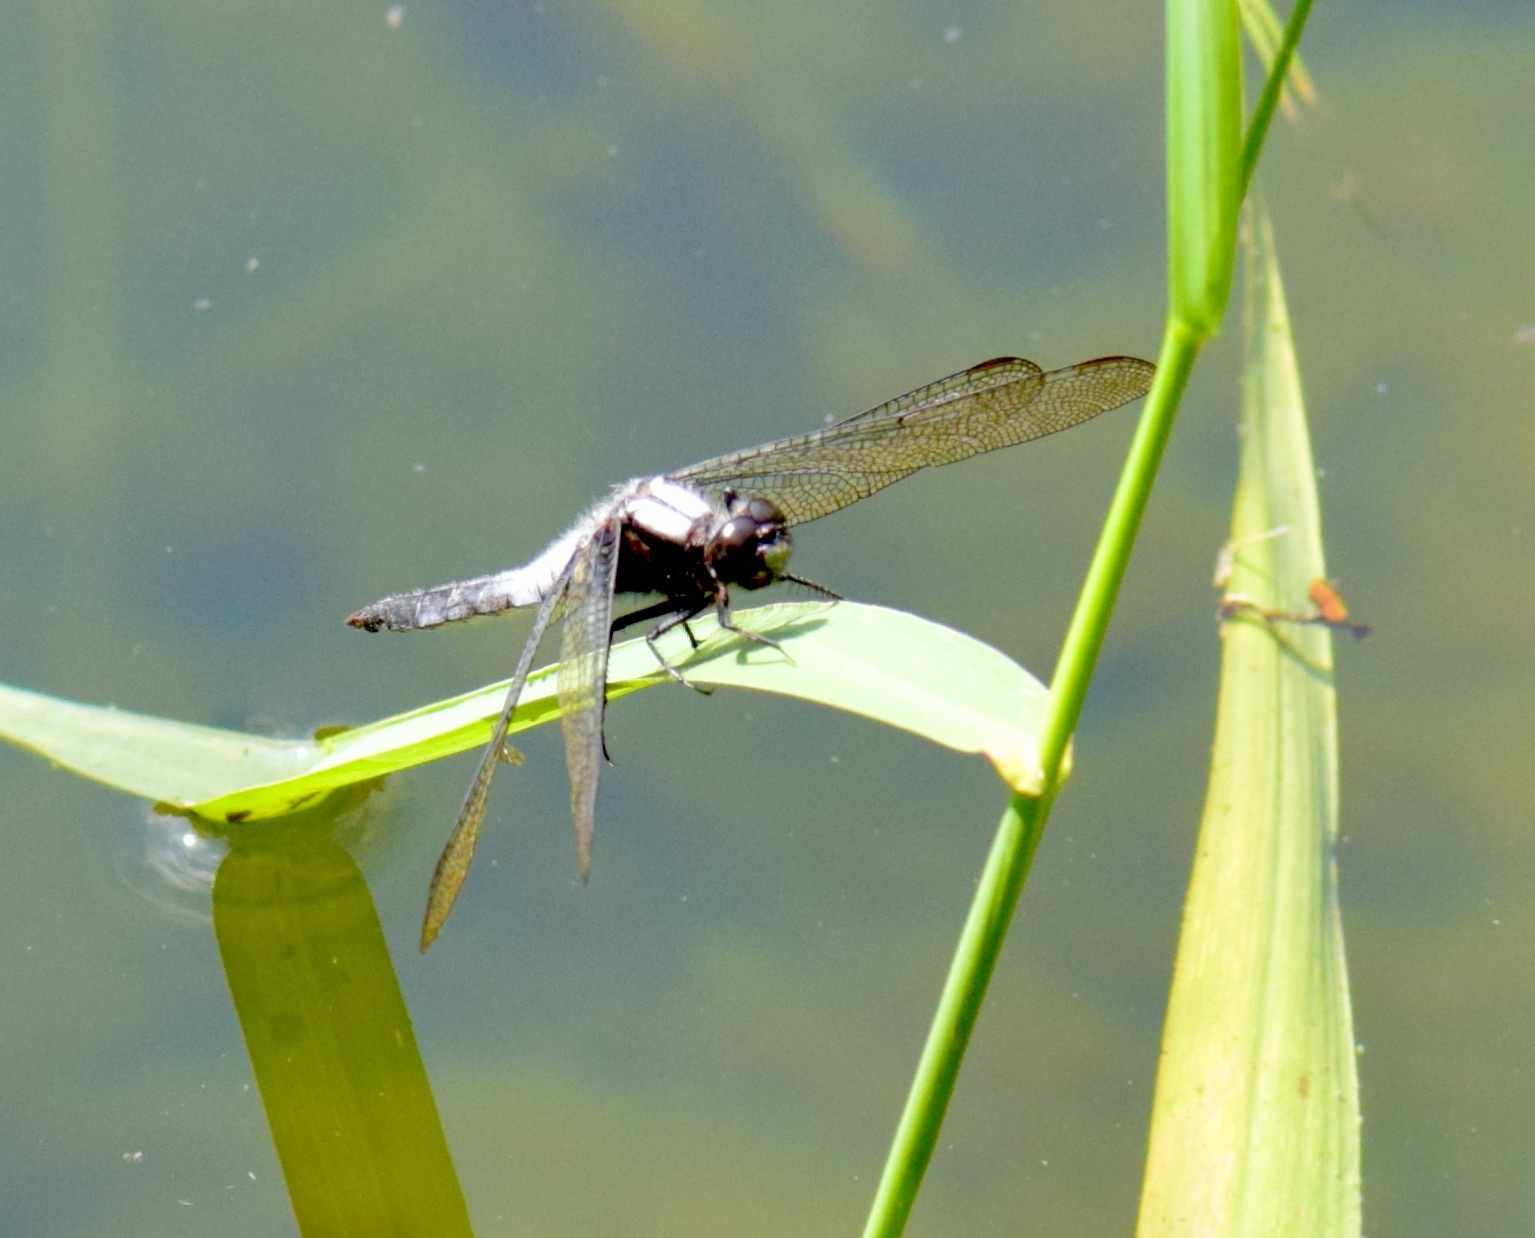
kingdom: Animalia
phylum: Arthropoda
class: Insecta
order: Odonata
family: Libellulidae
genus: Ladona
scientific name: Ladona julia
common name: Chalk-fronted corporal
